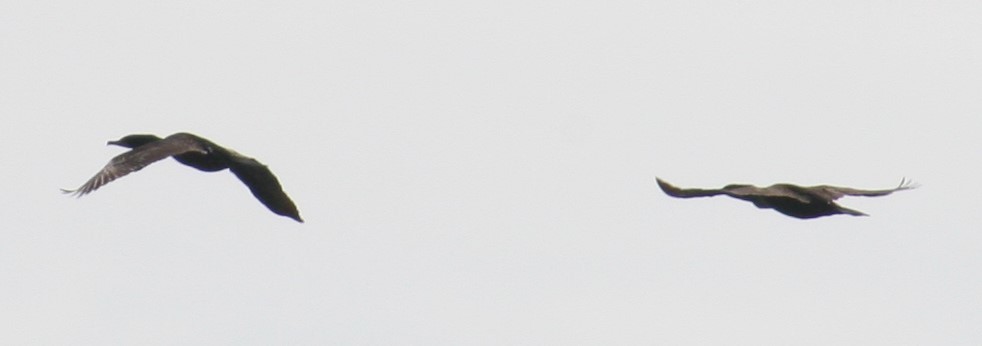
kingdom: Animalia
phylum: Chordata
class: Aves
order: Suliformes
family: Phalacrocoracidae
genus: Phalacrocorax
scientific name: Phalacrocorax auritus
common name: Double-crested cormorant
